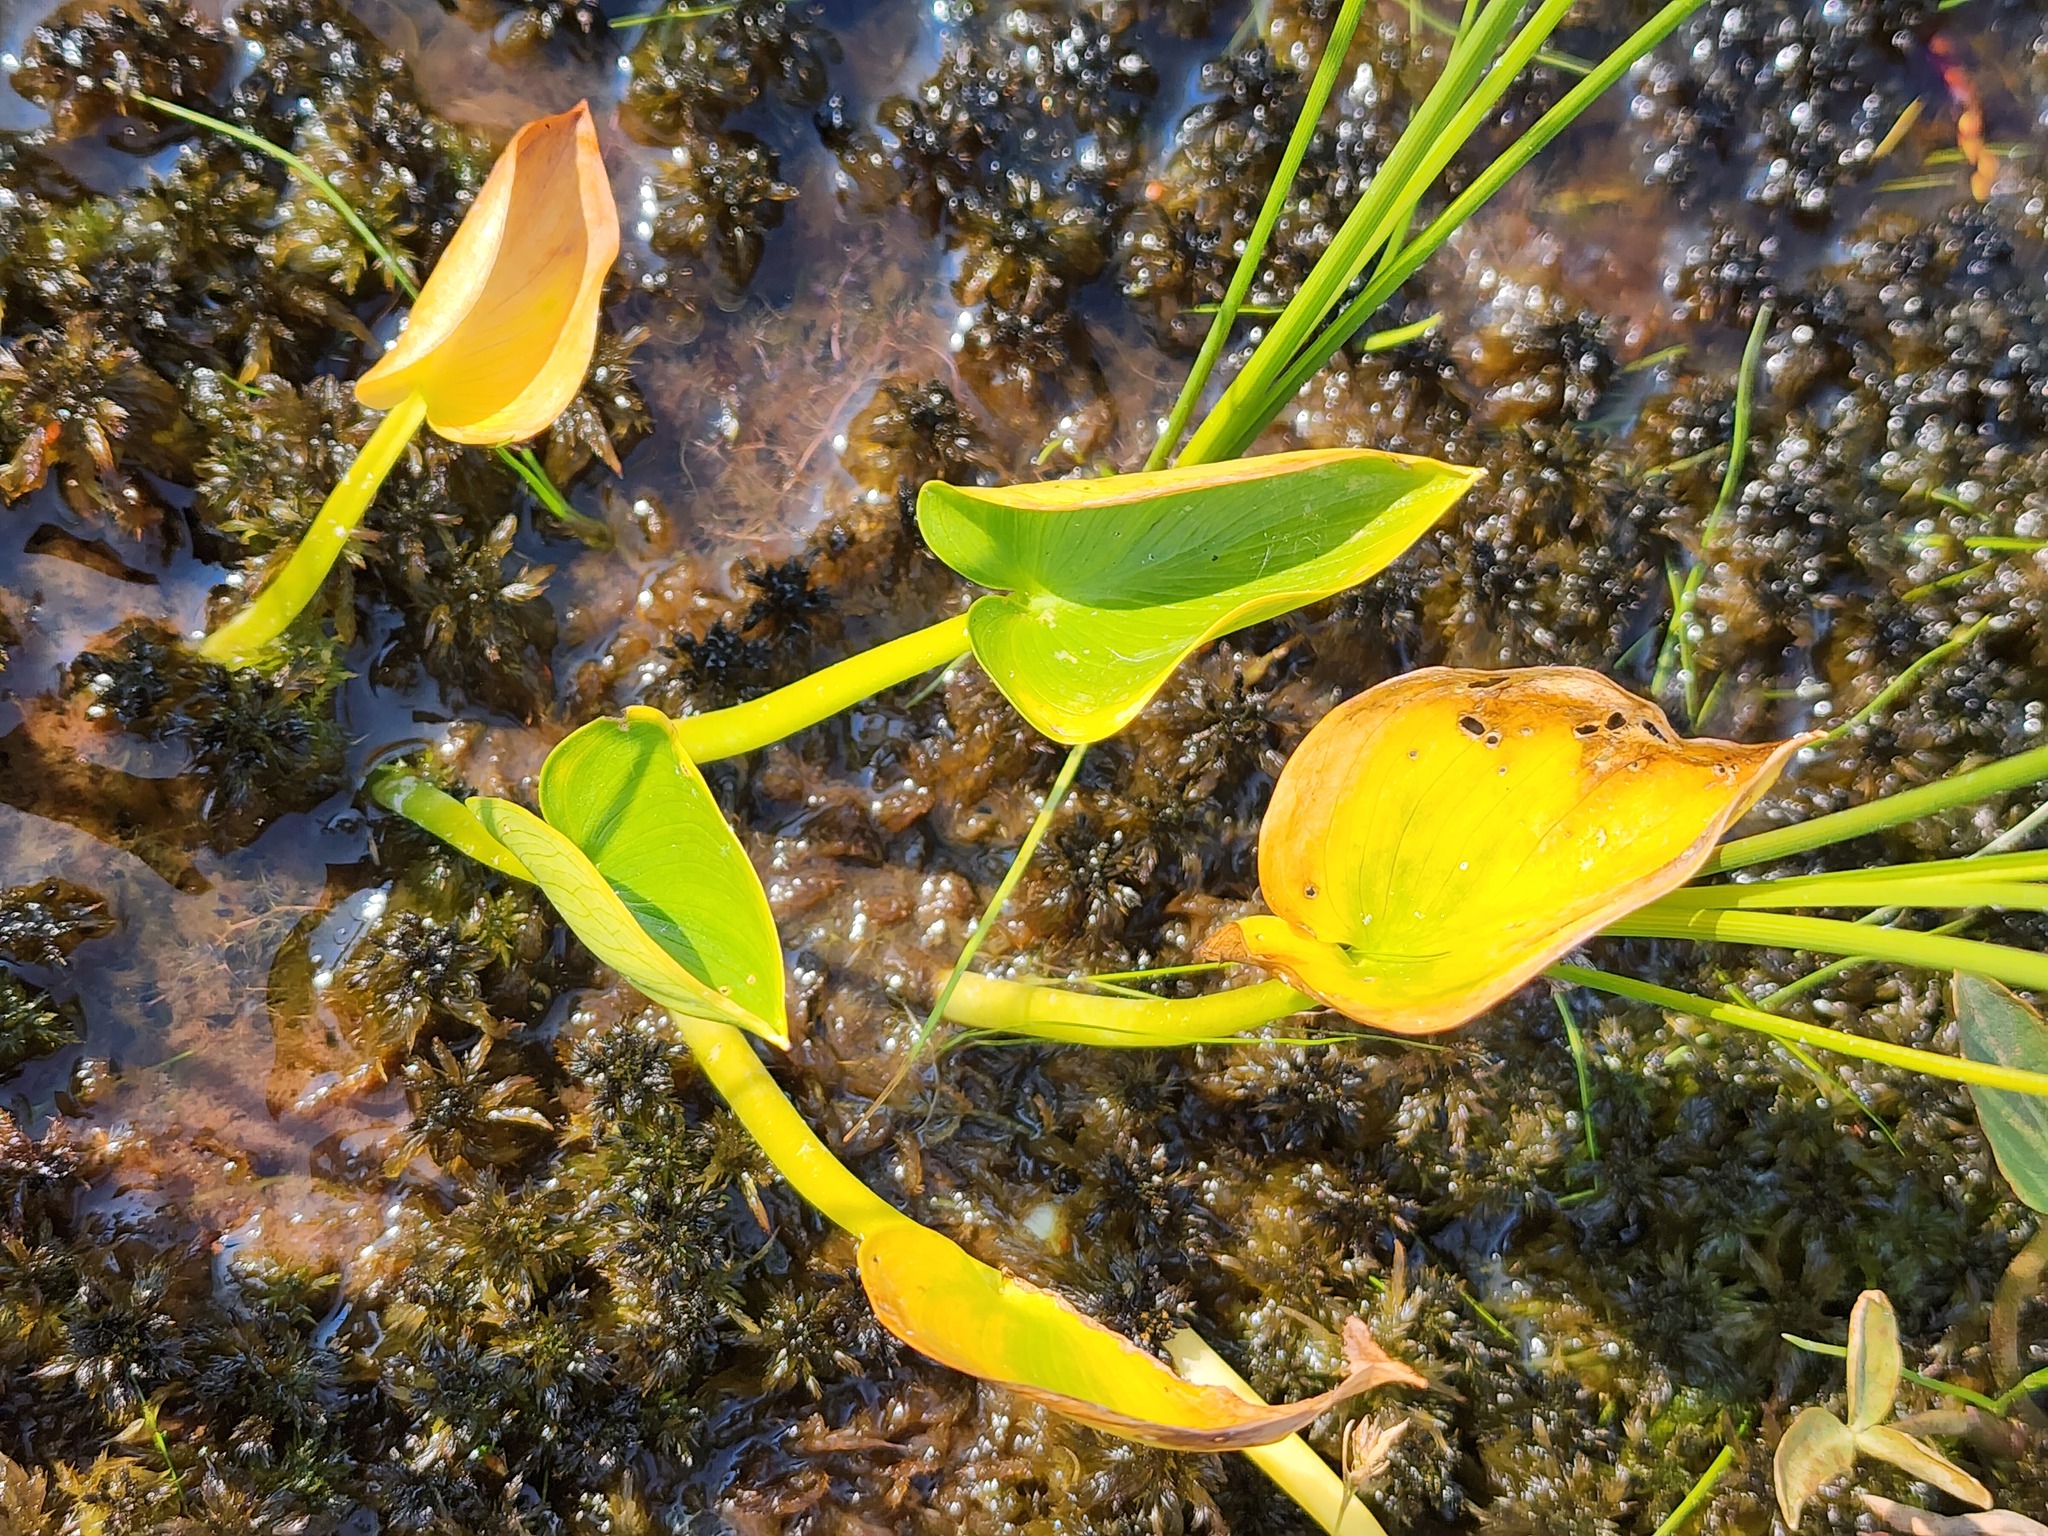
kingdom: Plantae
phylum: Tracheophyta
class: Liliopsida
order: Alismatales
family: Araceae
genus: Calla
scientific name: Calla palustris
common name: Bog arum
